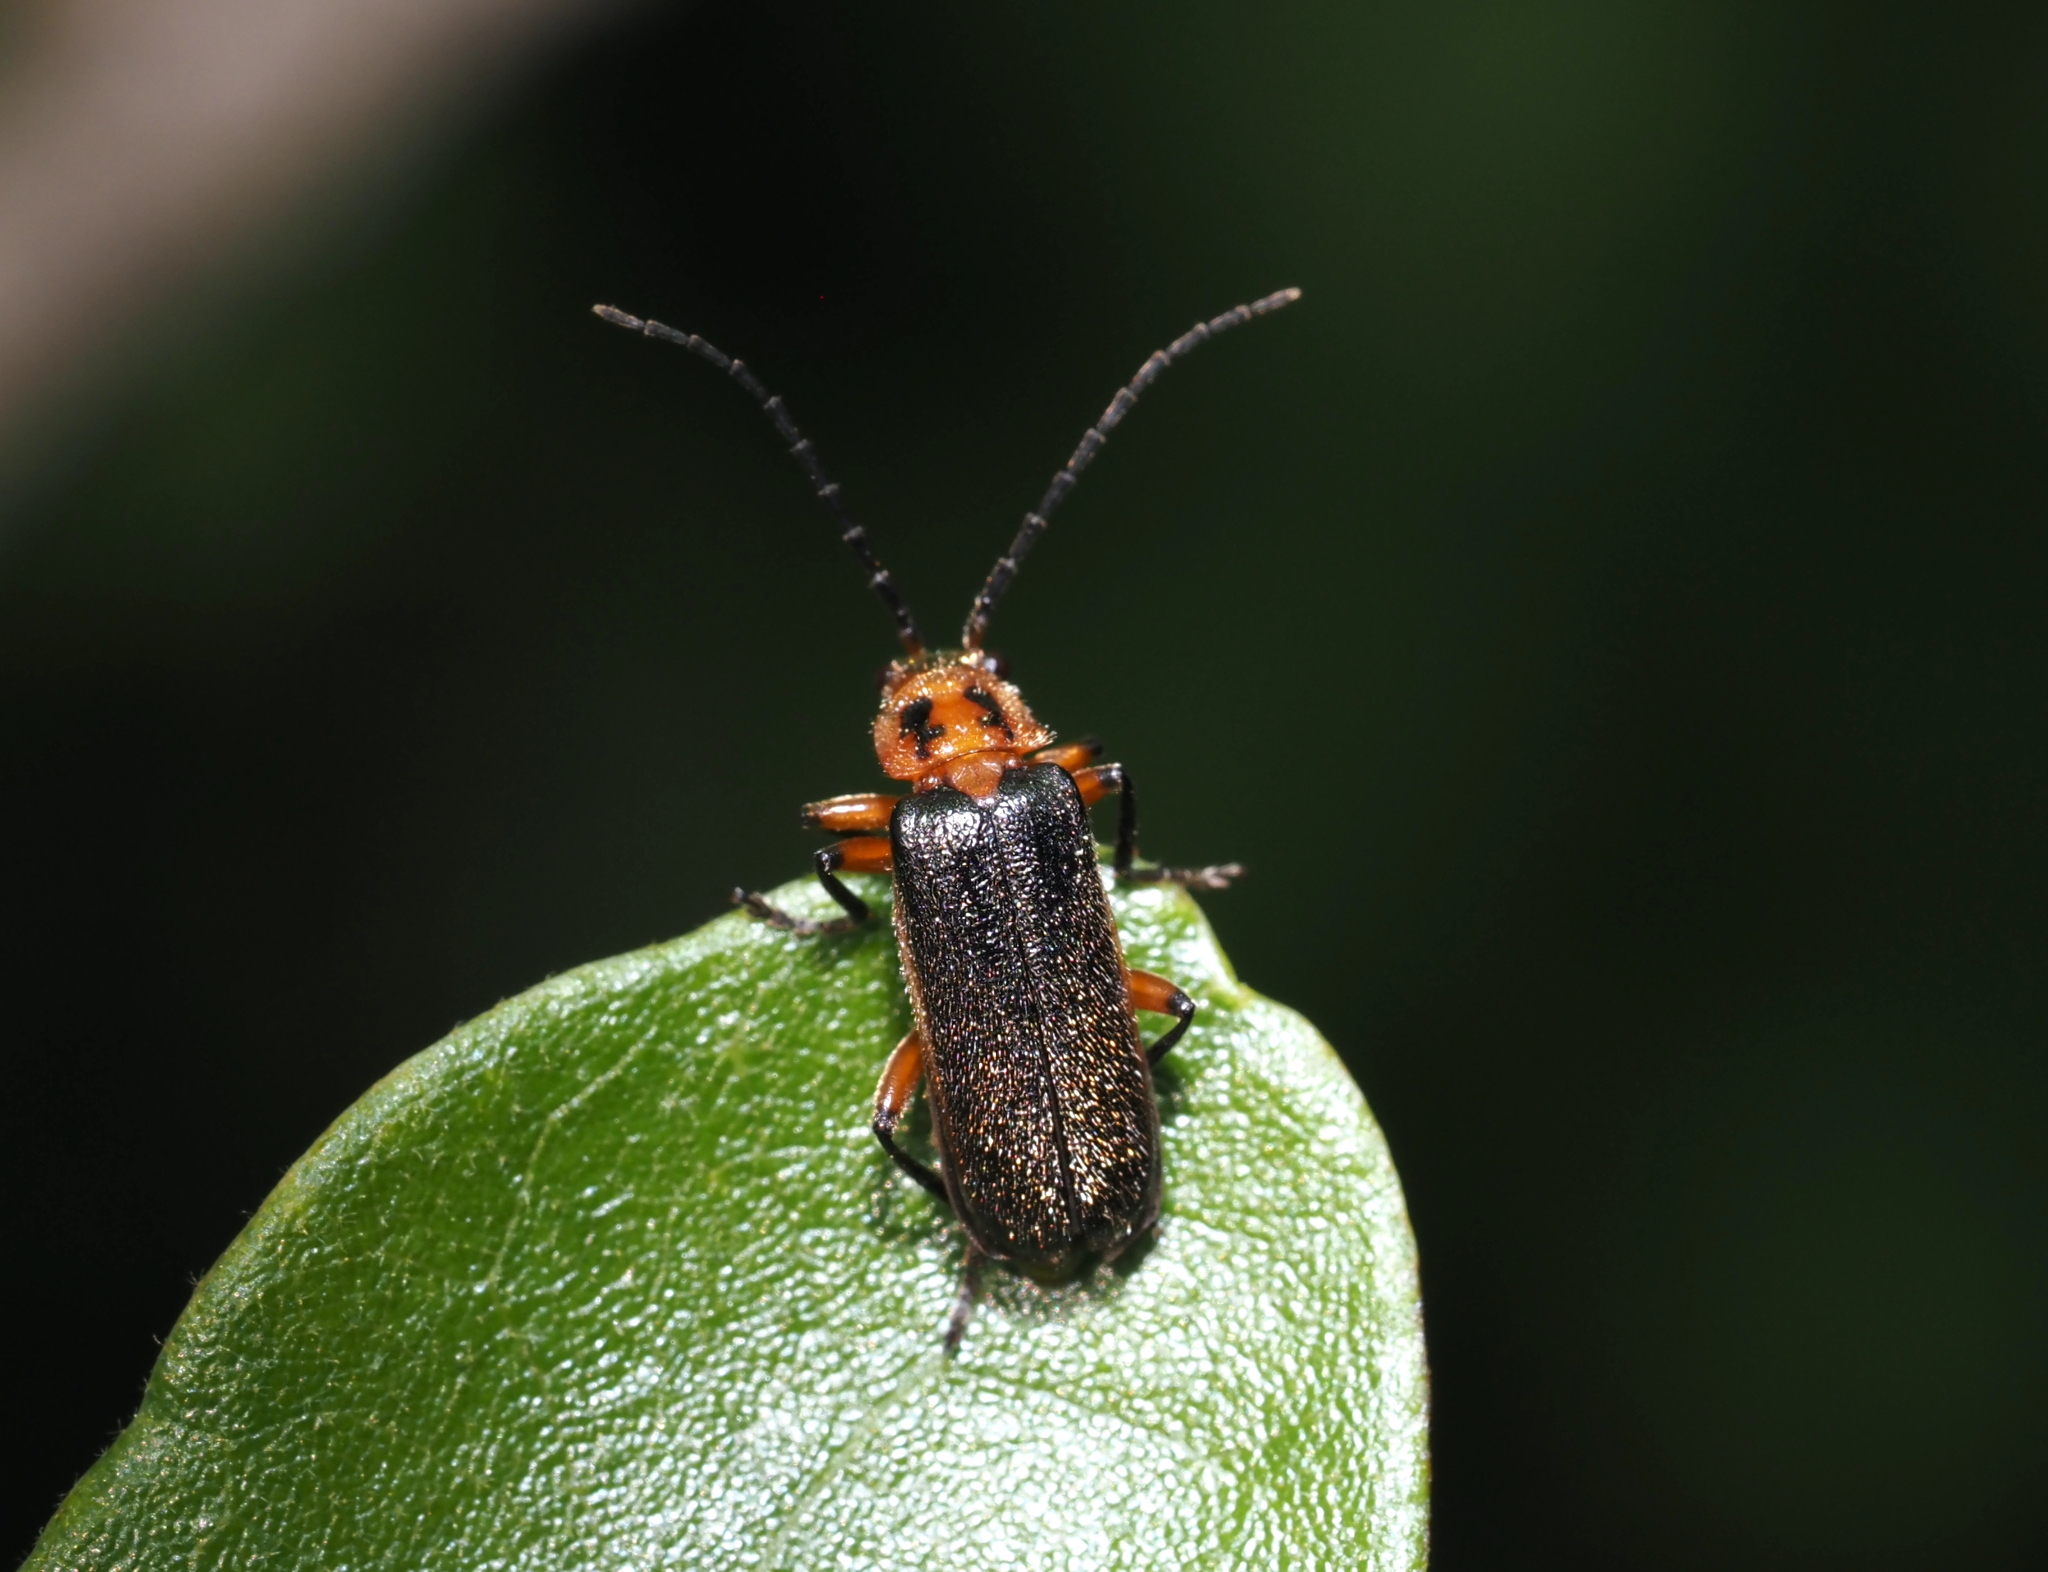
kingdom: Animalia
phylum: Arthropoda
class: Insecta
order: Coleoptera
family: Cantharidae
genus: Atalantycha
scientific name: Atalantycha bilineata
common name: Two-lined leatherwing
